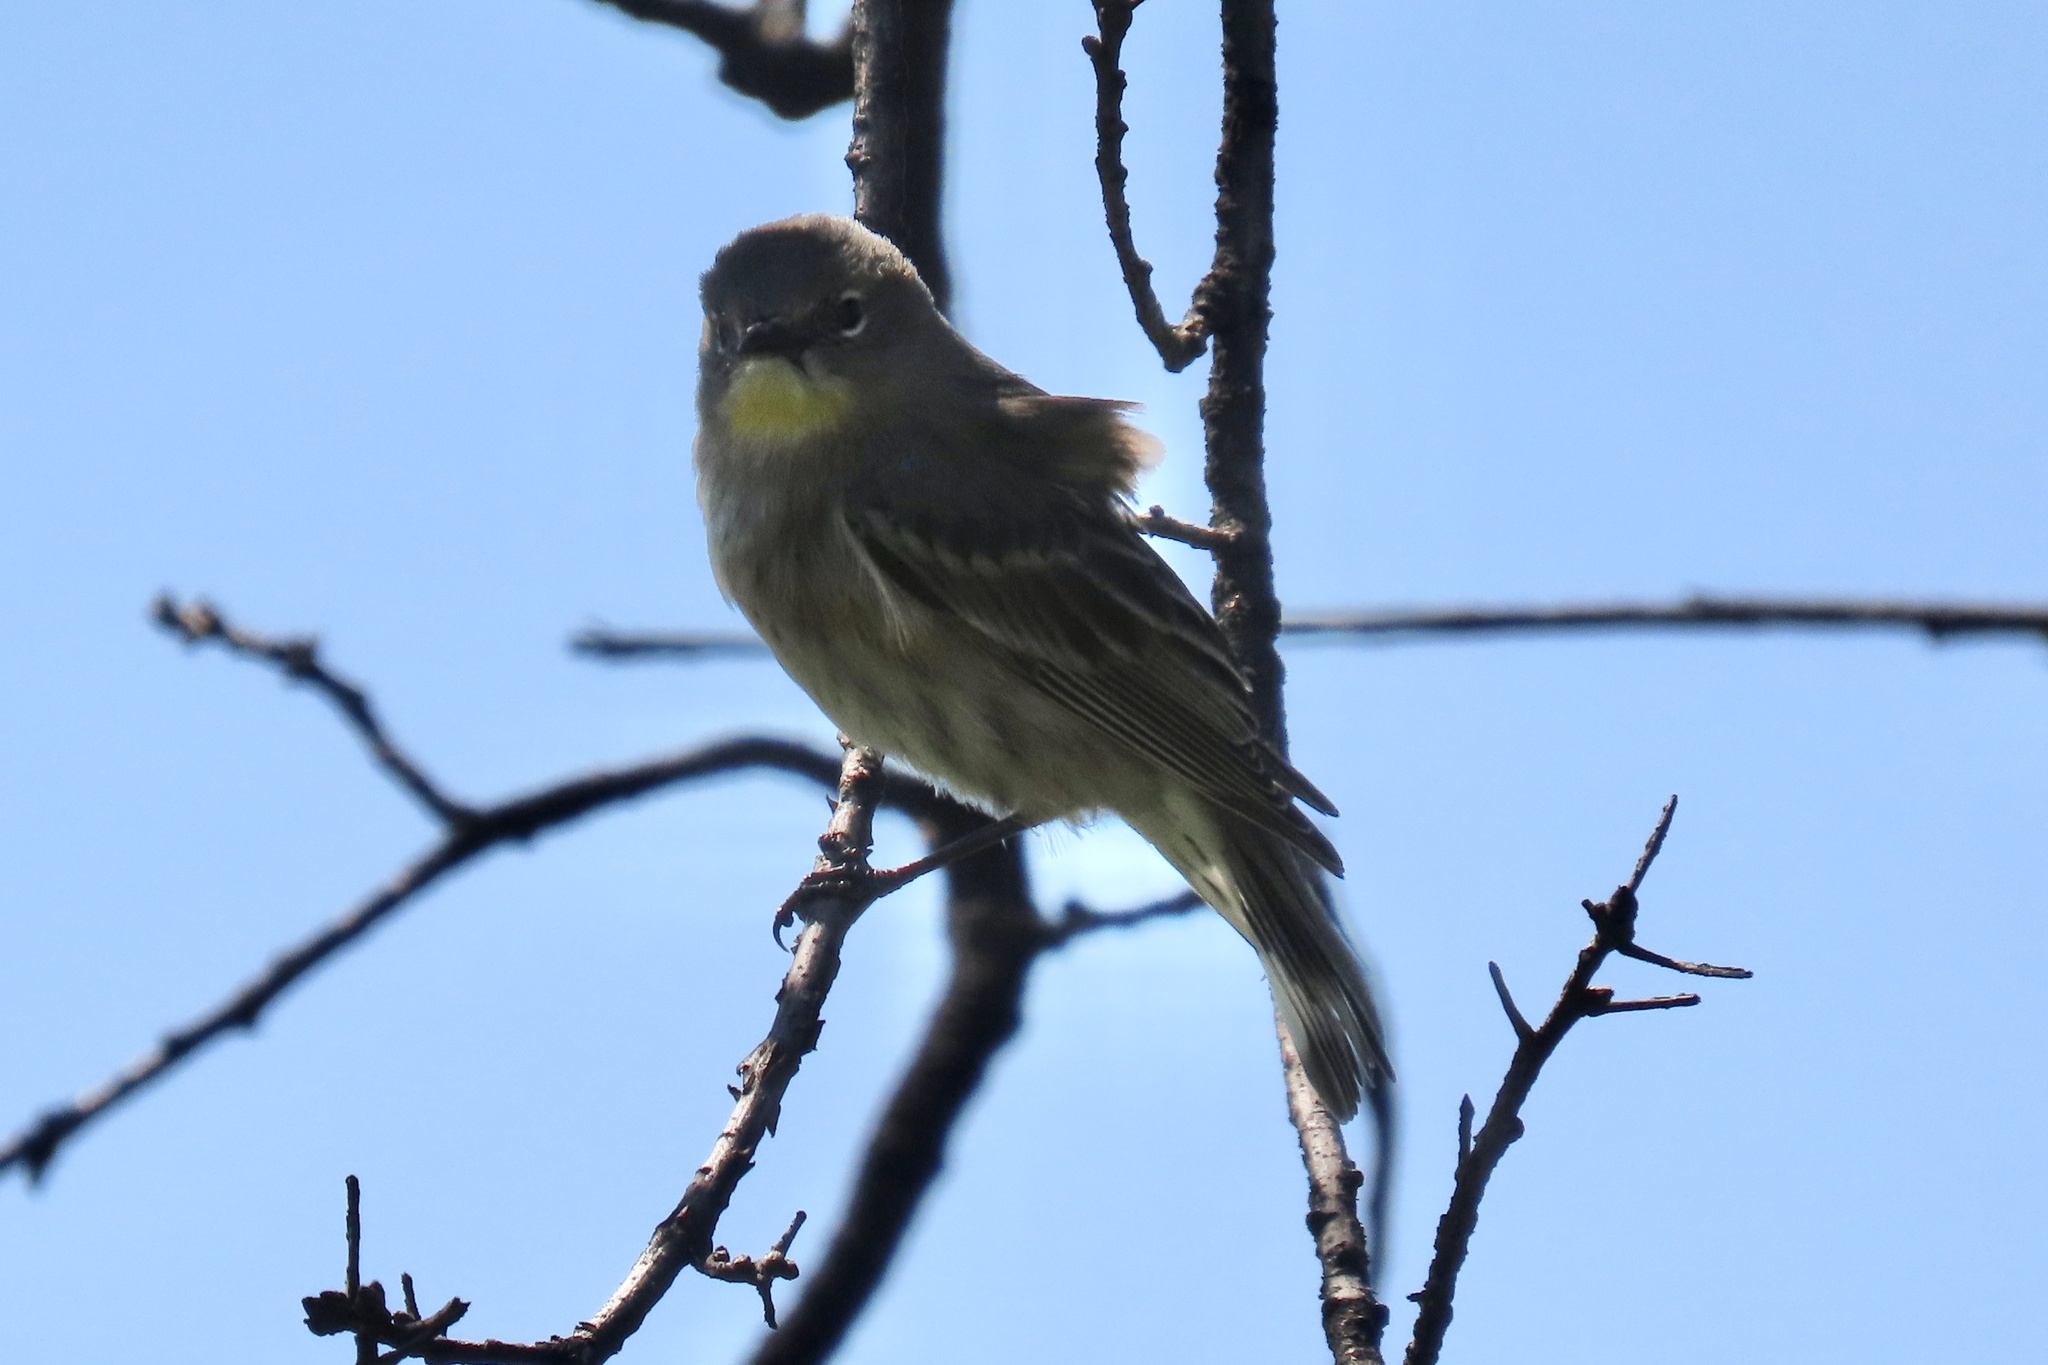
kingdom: Animalia
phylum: Chordata
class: Aves
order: Passeriformes
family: Parulidae
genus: Setophaga
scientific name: Setophaga coronata
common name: Myrtle warbler
